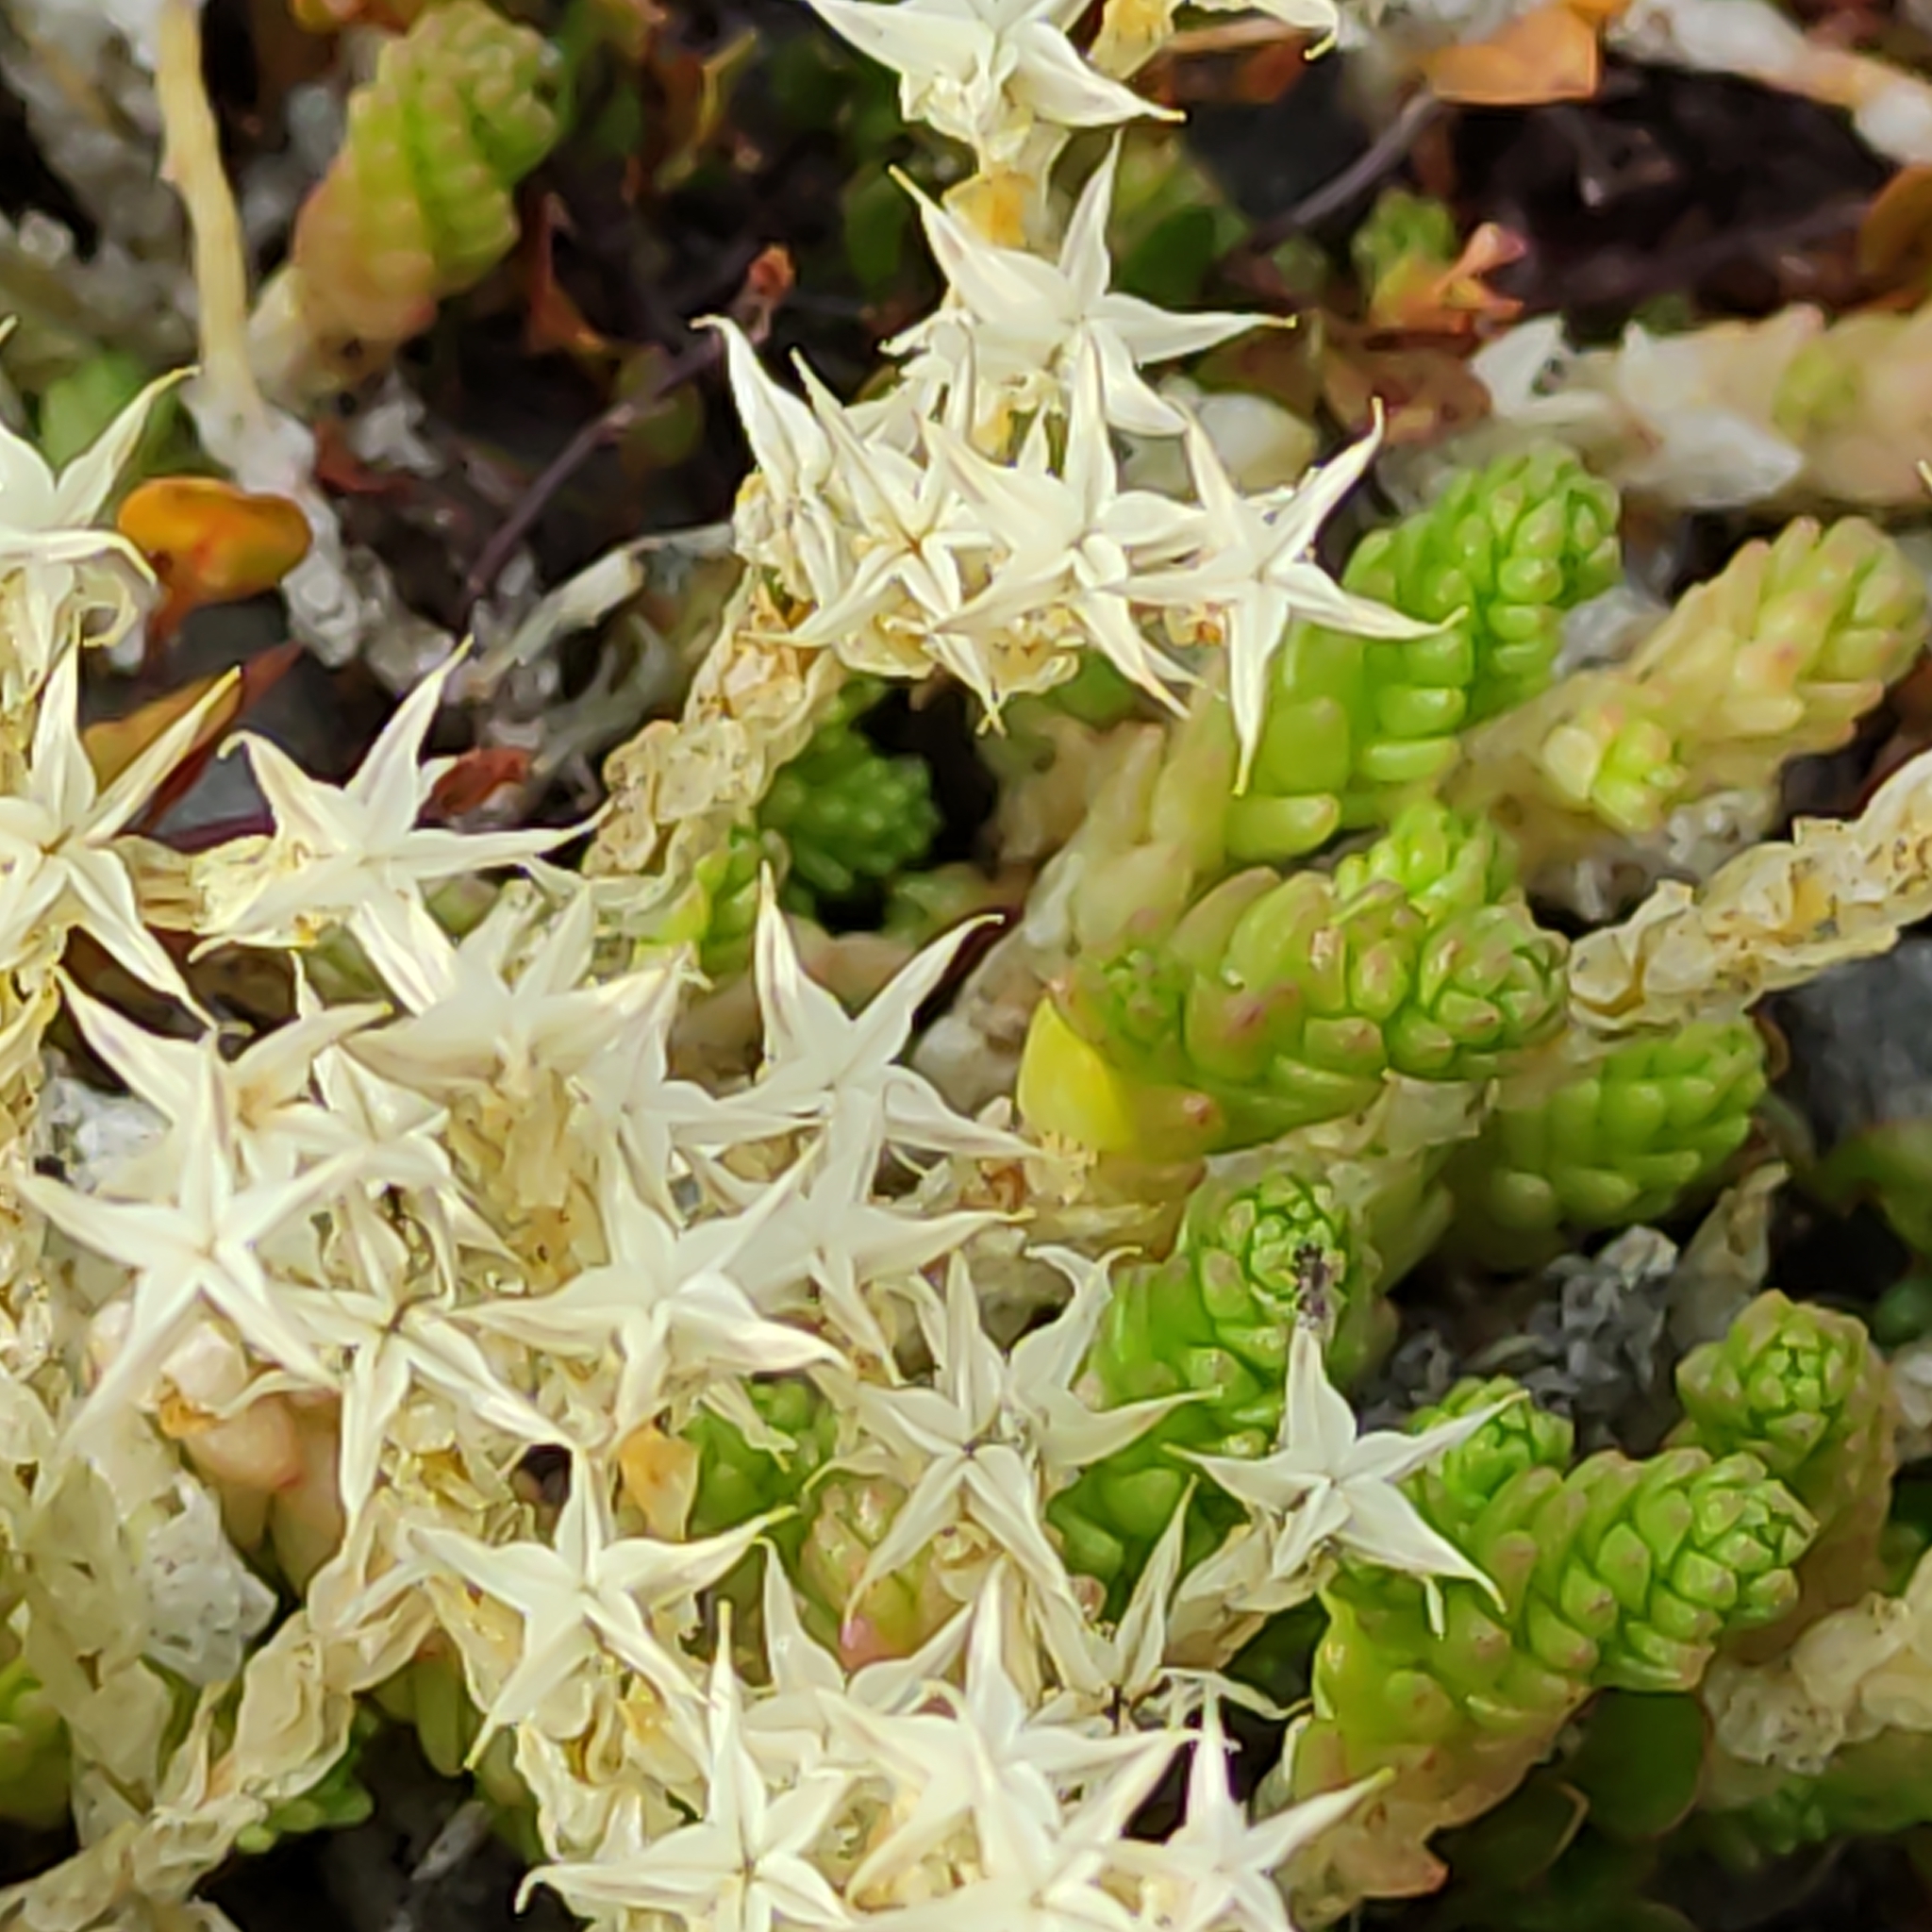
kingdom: Plantae
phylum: Tracheophyta
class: Magnoliopsida
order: Saxifragales
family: Crassulaceae
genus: Sedum
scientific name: Sedum acre
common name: Biting stonecrop
